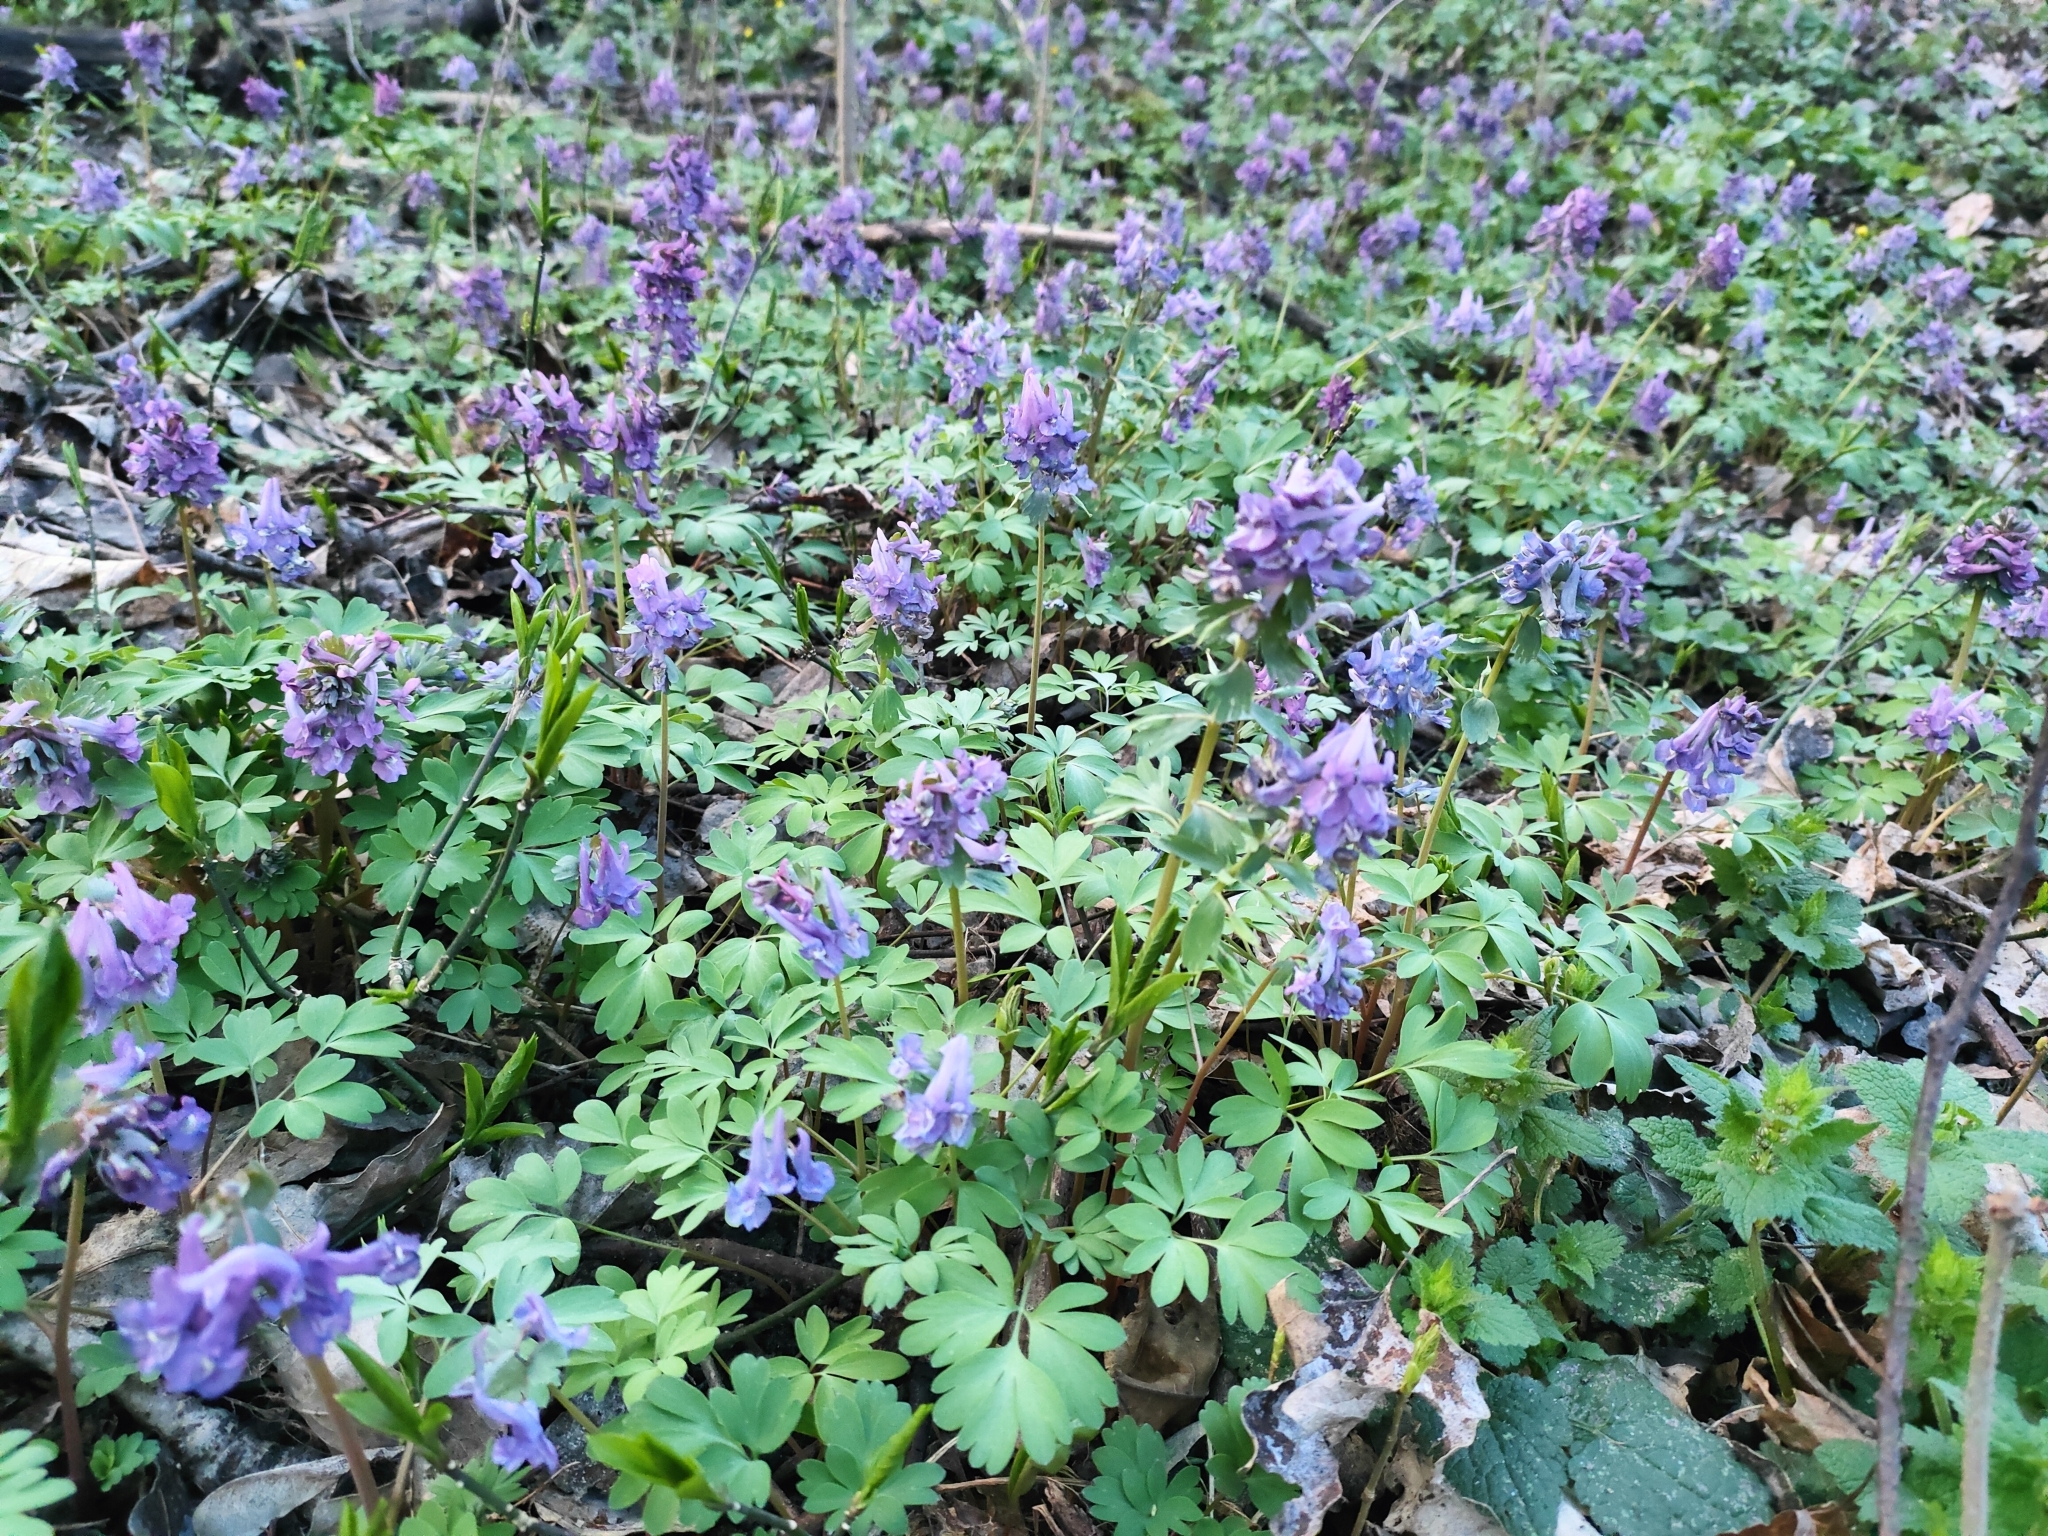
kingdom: Plantae
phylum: Tracheophyta
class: Magnoliopsida
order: Ranunculales
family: Papaveraceae
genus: Corydalis
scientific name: Corydalis solida
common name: Bird-in-a-bush
